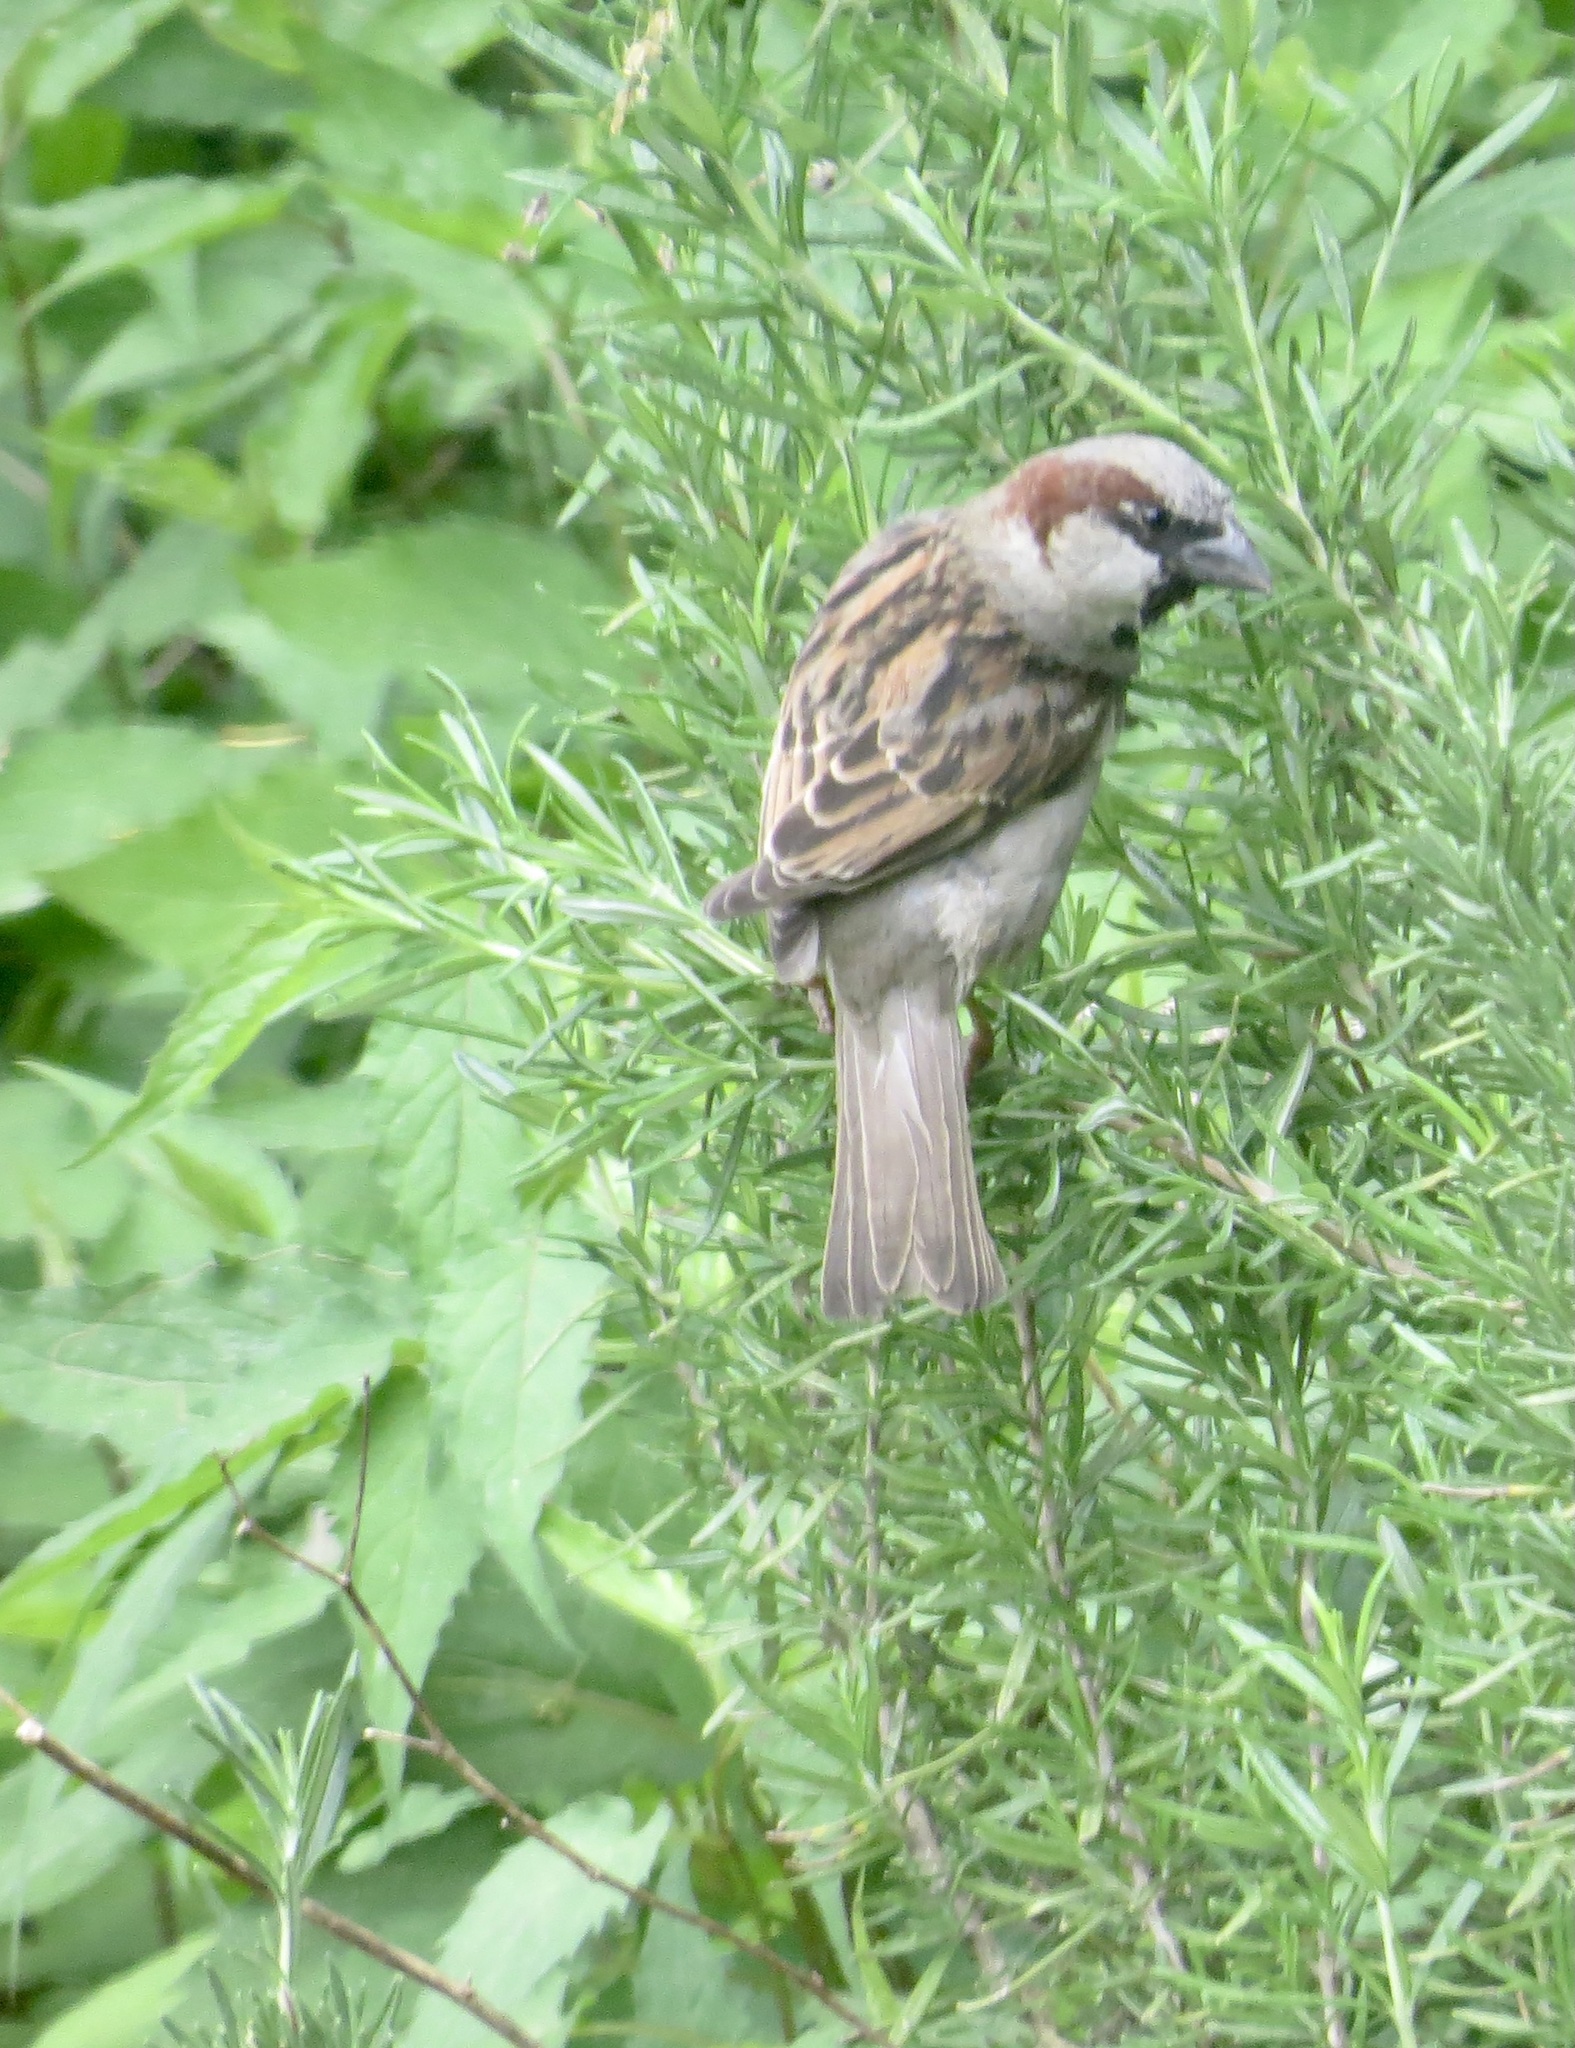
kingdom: Animalia
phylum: Chordata
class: Aves
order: Passeriformes
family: Passeridae
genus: Passer
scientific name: Passer domesticus
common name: House sparrow
